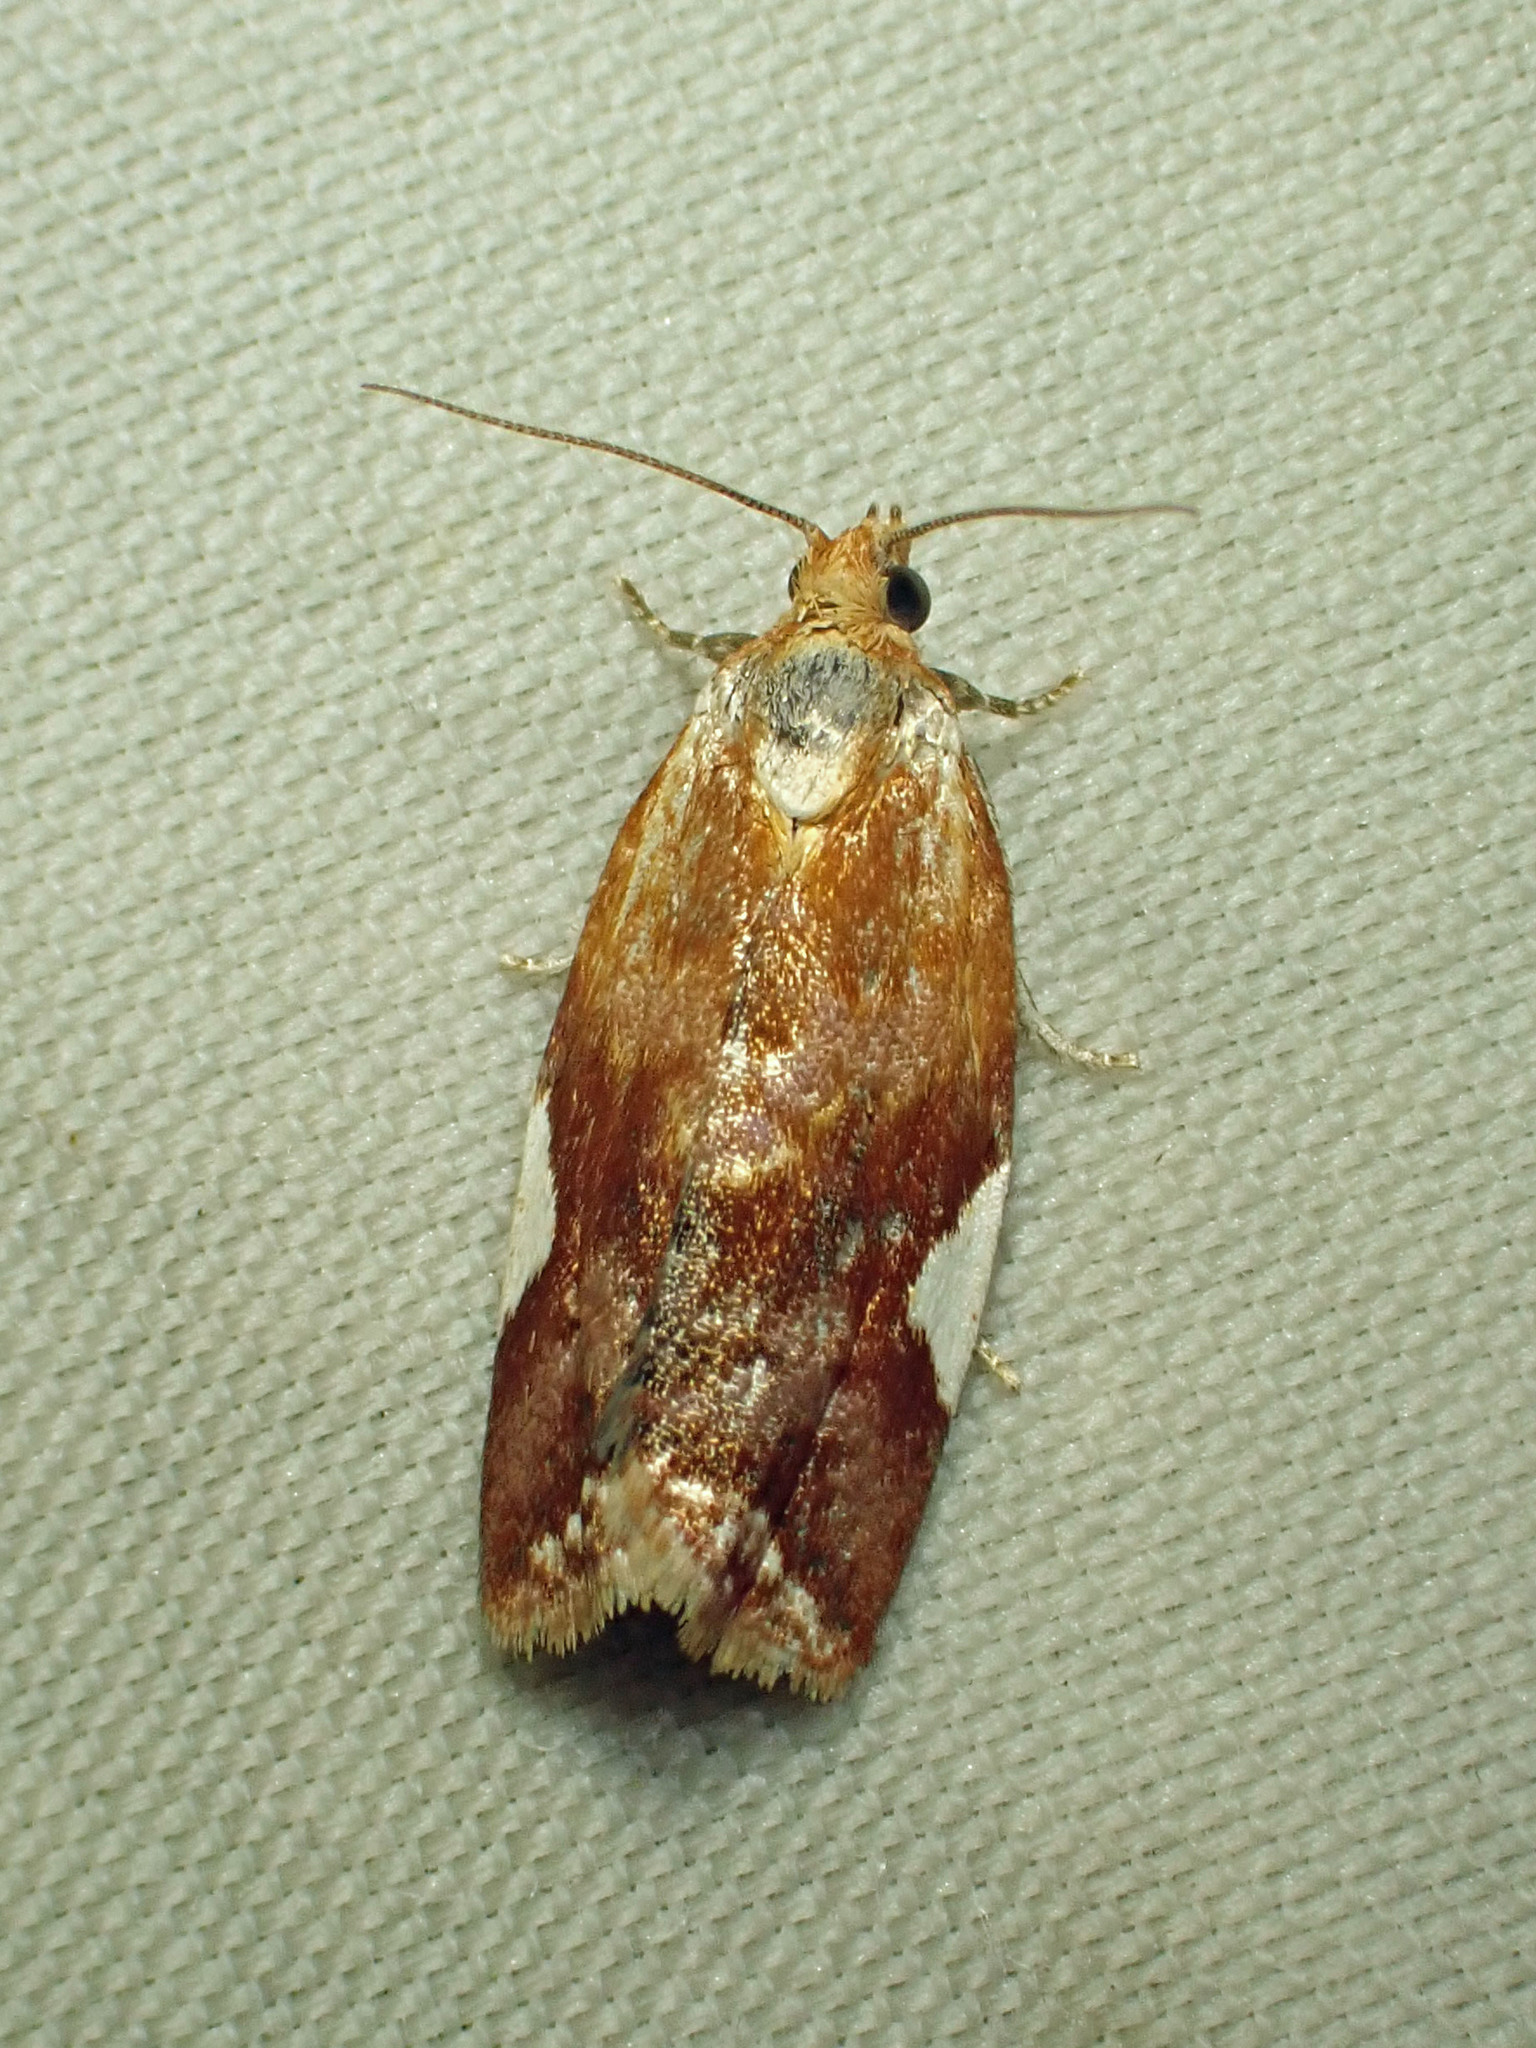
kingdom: Animalia
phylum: Arthropoda
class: Insecta
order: Lepidoptera
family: Tortricidae
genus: Clepsis
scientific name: Clepsis persicana
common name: White triangle tortrix
